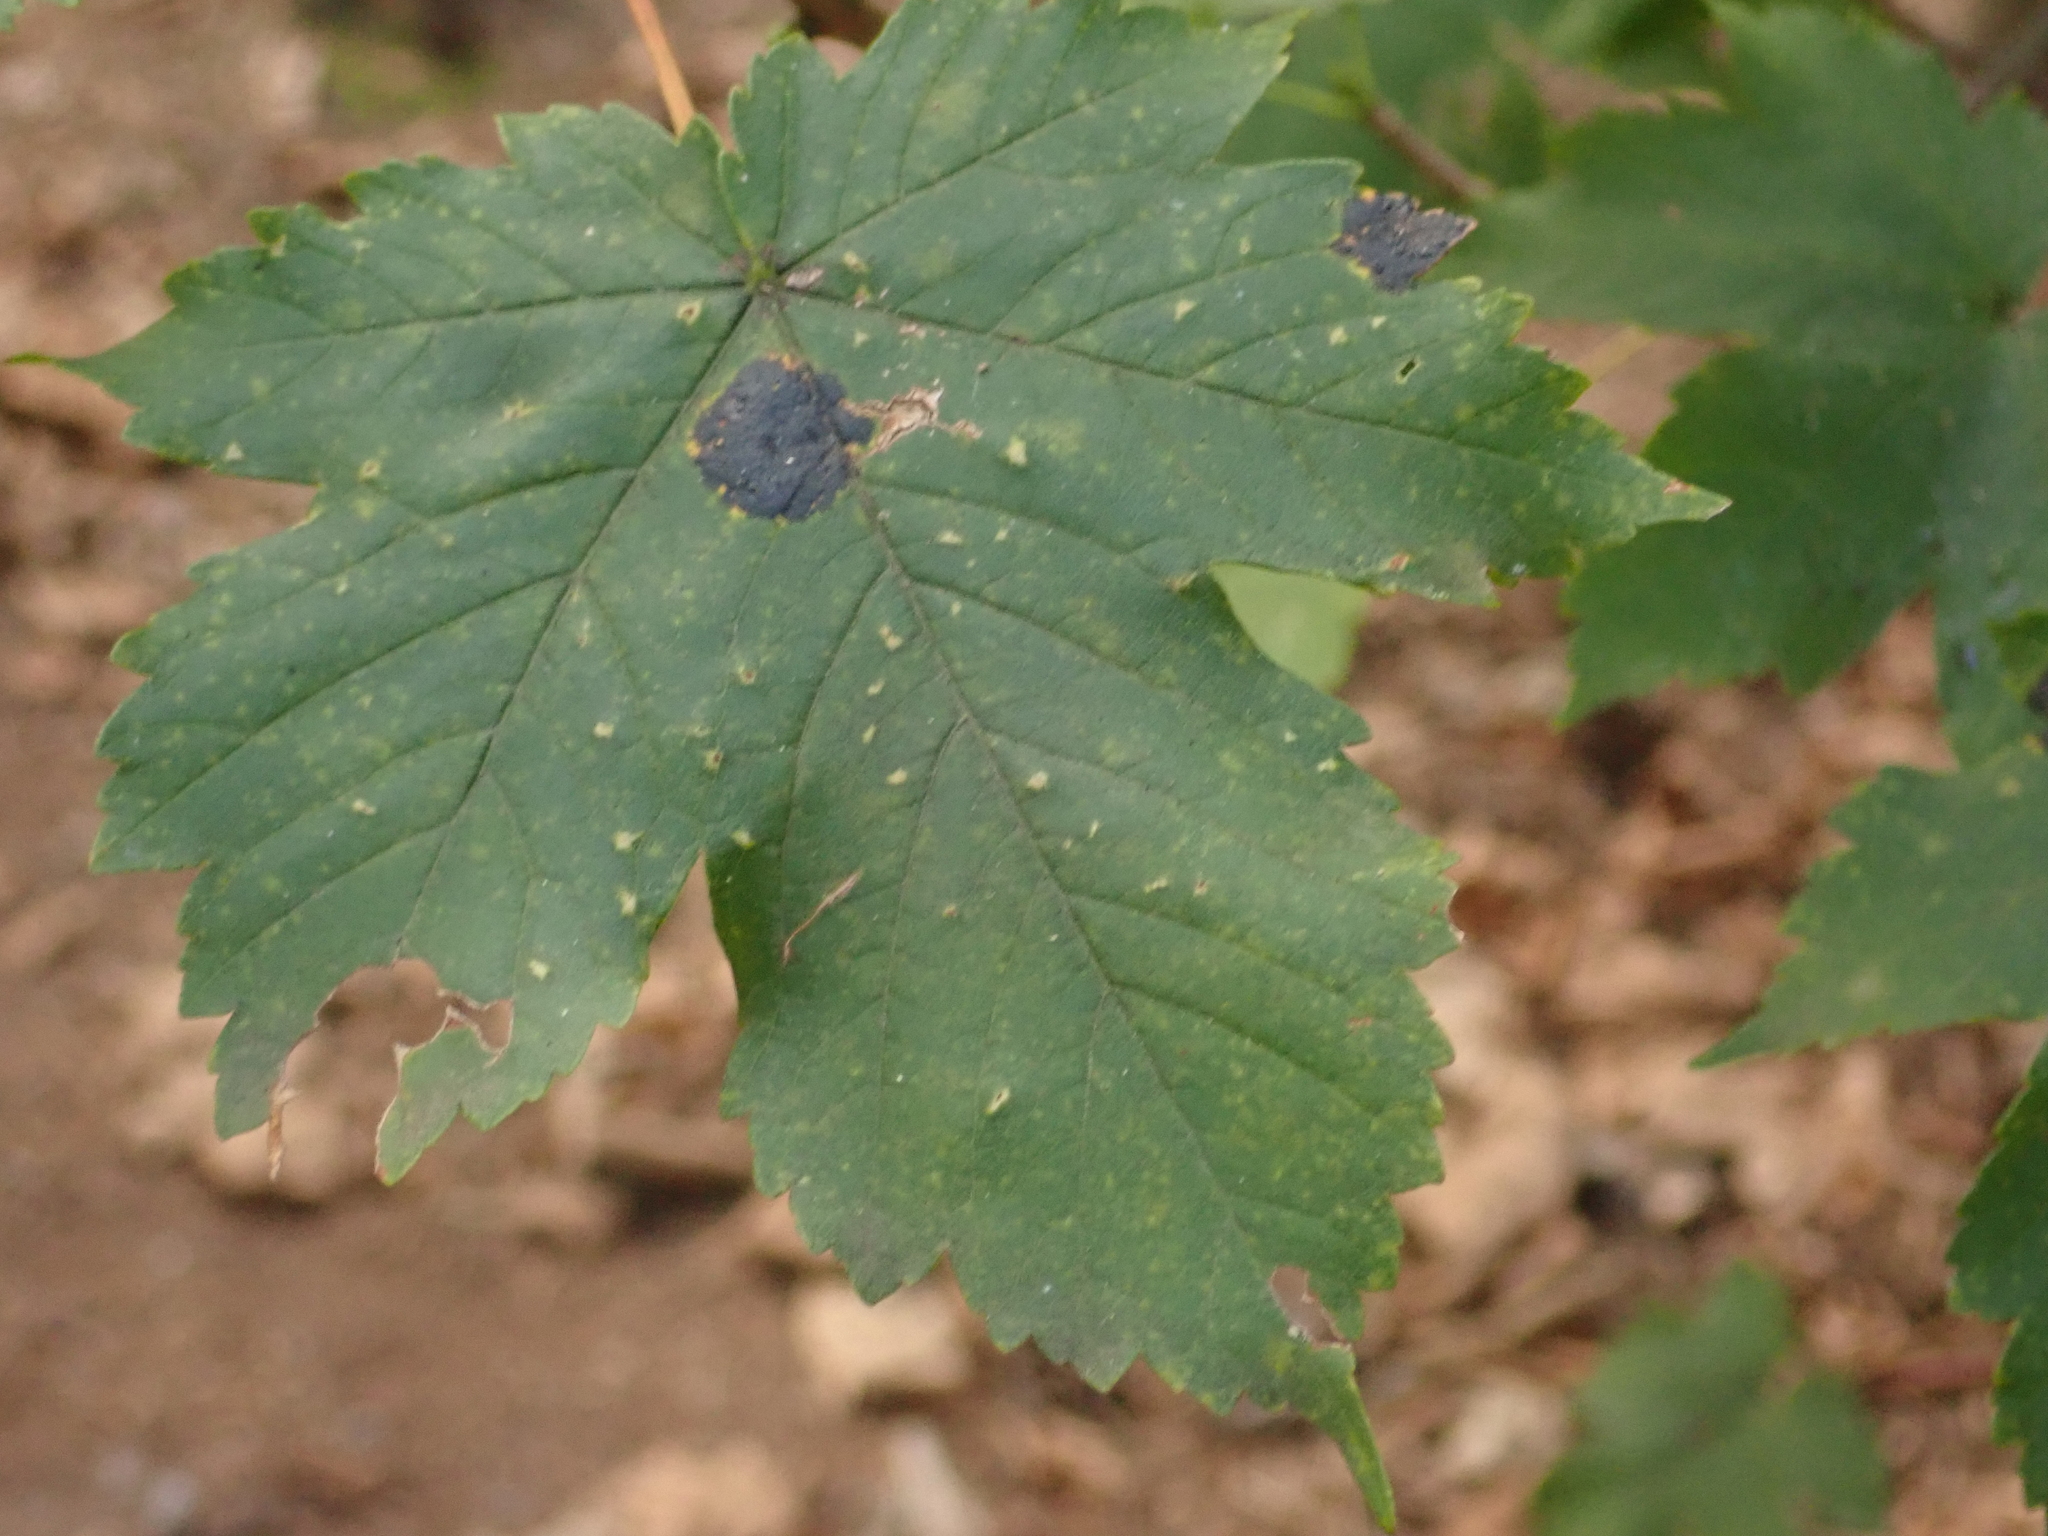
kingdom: Plantae
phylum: Tracheophyta
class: Magnoliopsida
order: Sapindales
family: Sapindaceae
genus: Acer
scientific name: Acer pseudoplatanus
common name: Sycamore
